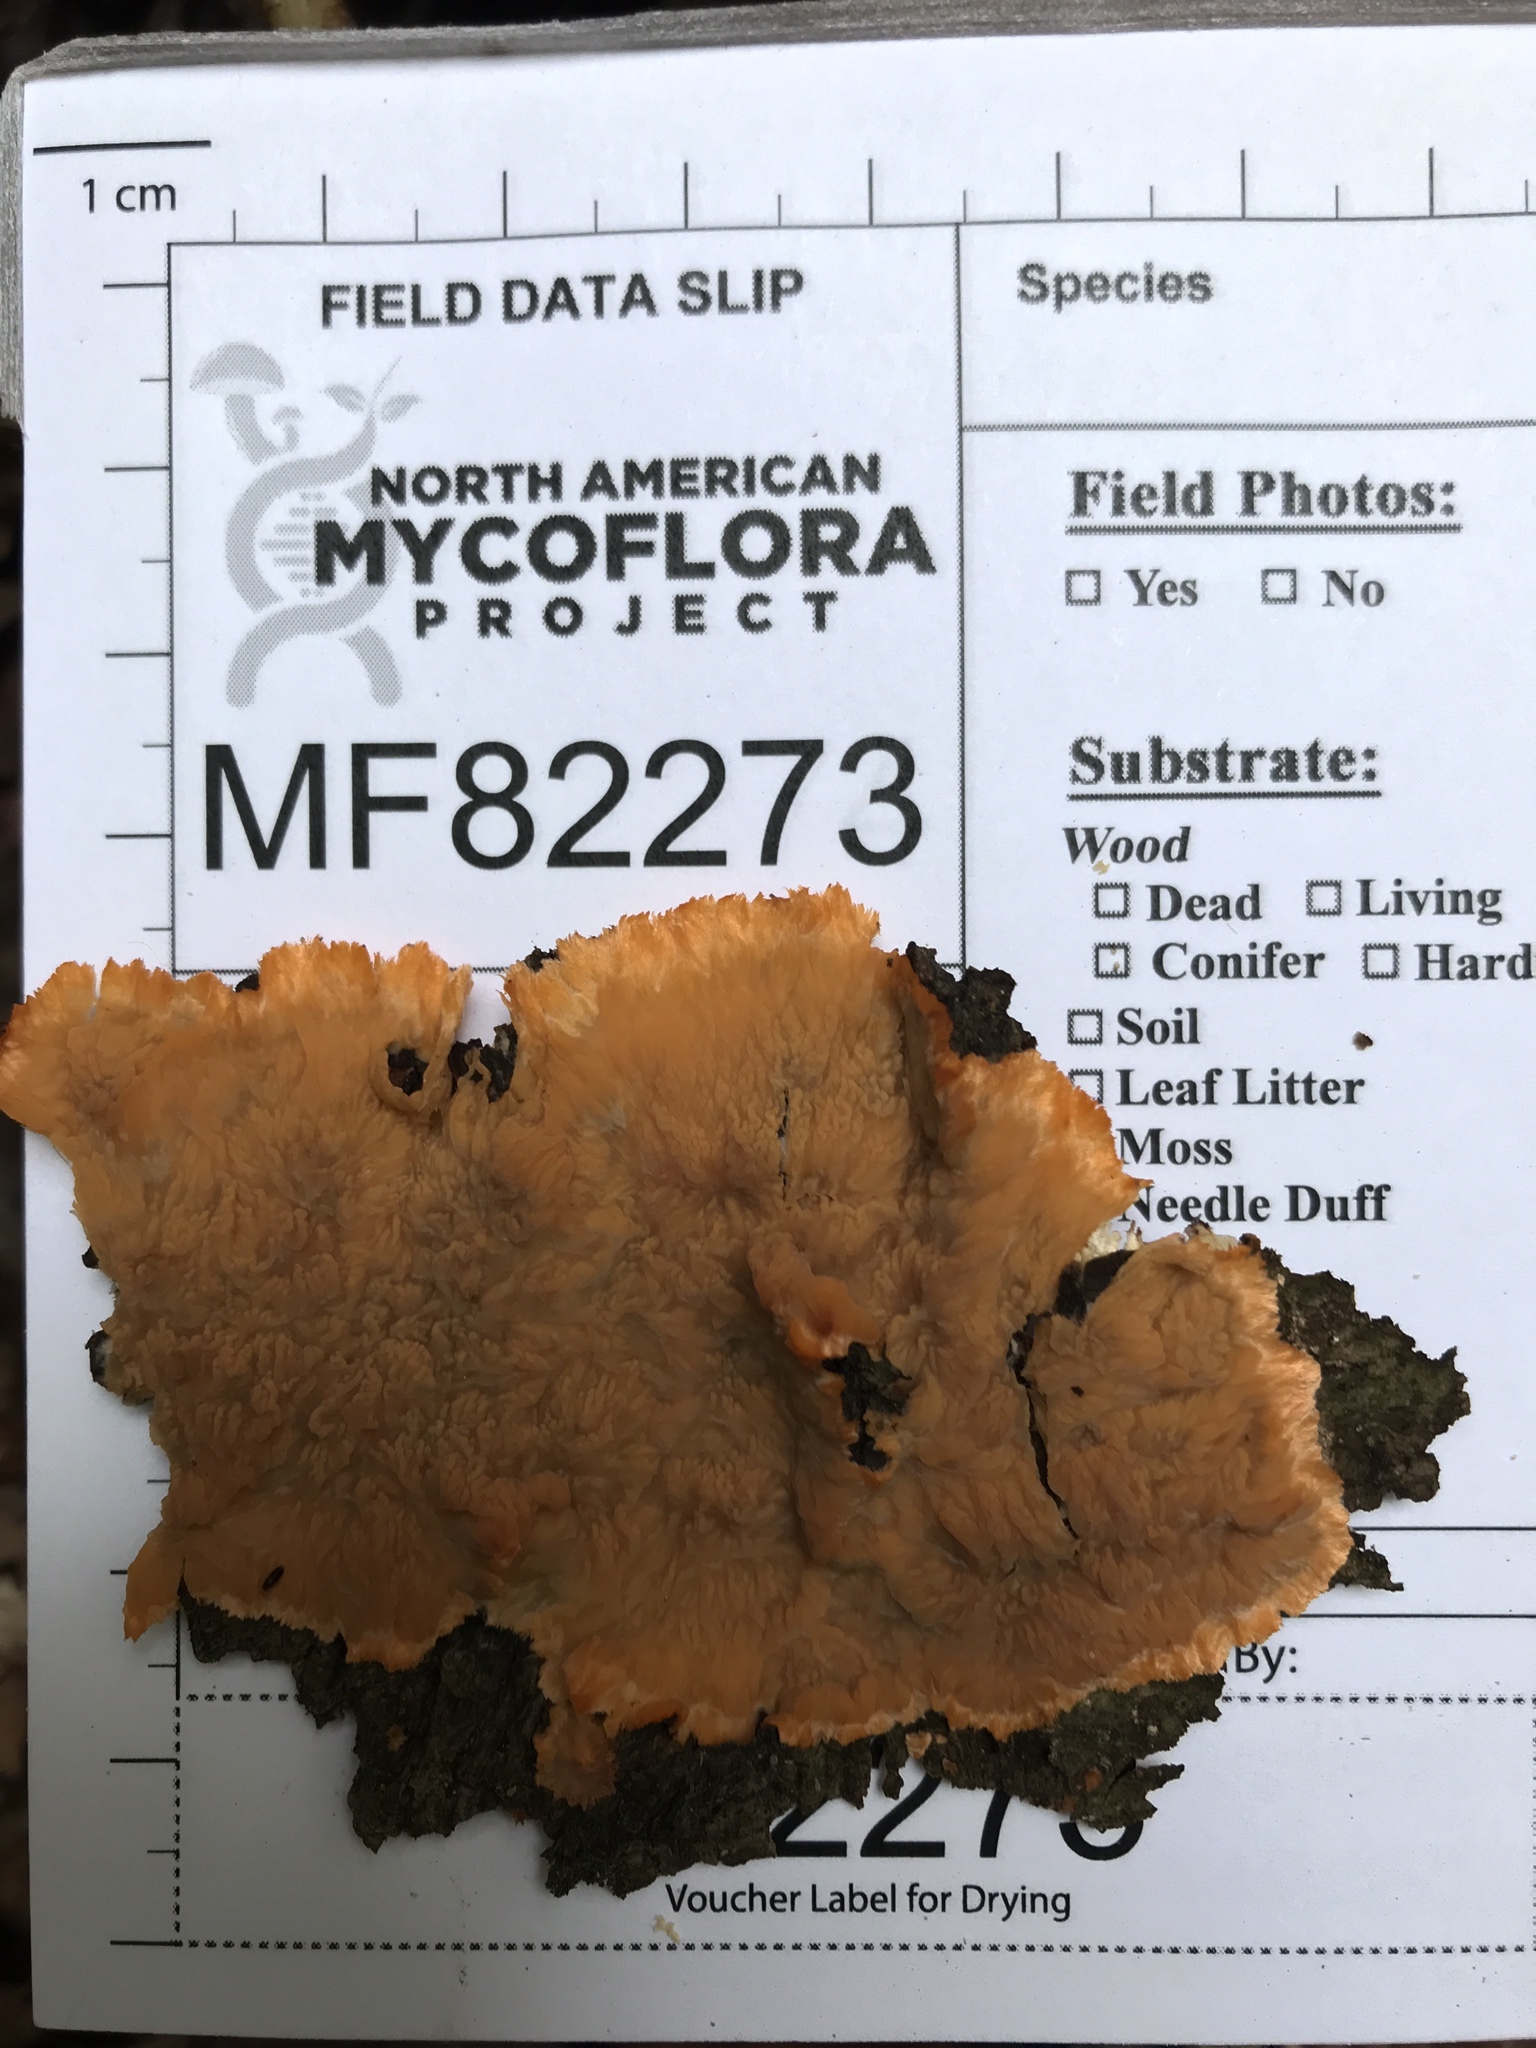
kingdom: Fungi
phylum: Basidiomycota
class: Agaricomycetes
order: Polyporales
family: Meruliaceae
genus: Phlebia
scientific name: Phlebia radiata
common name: Wrinkled crust
